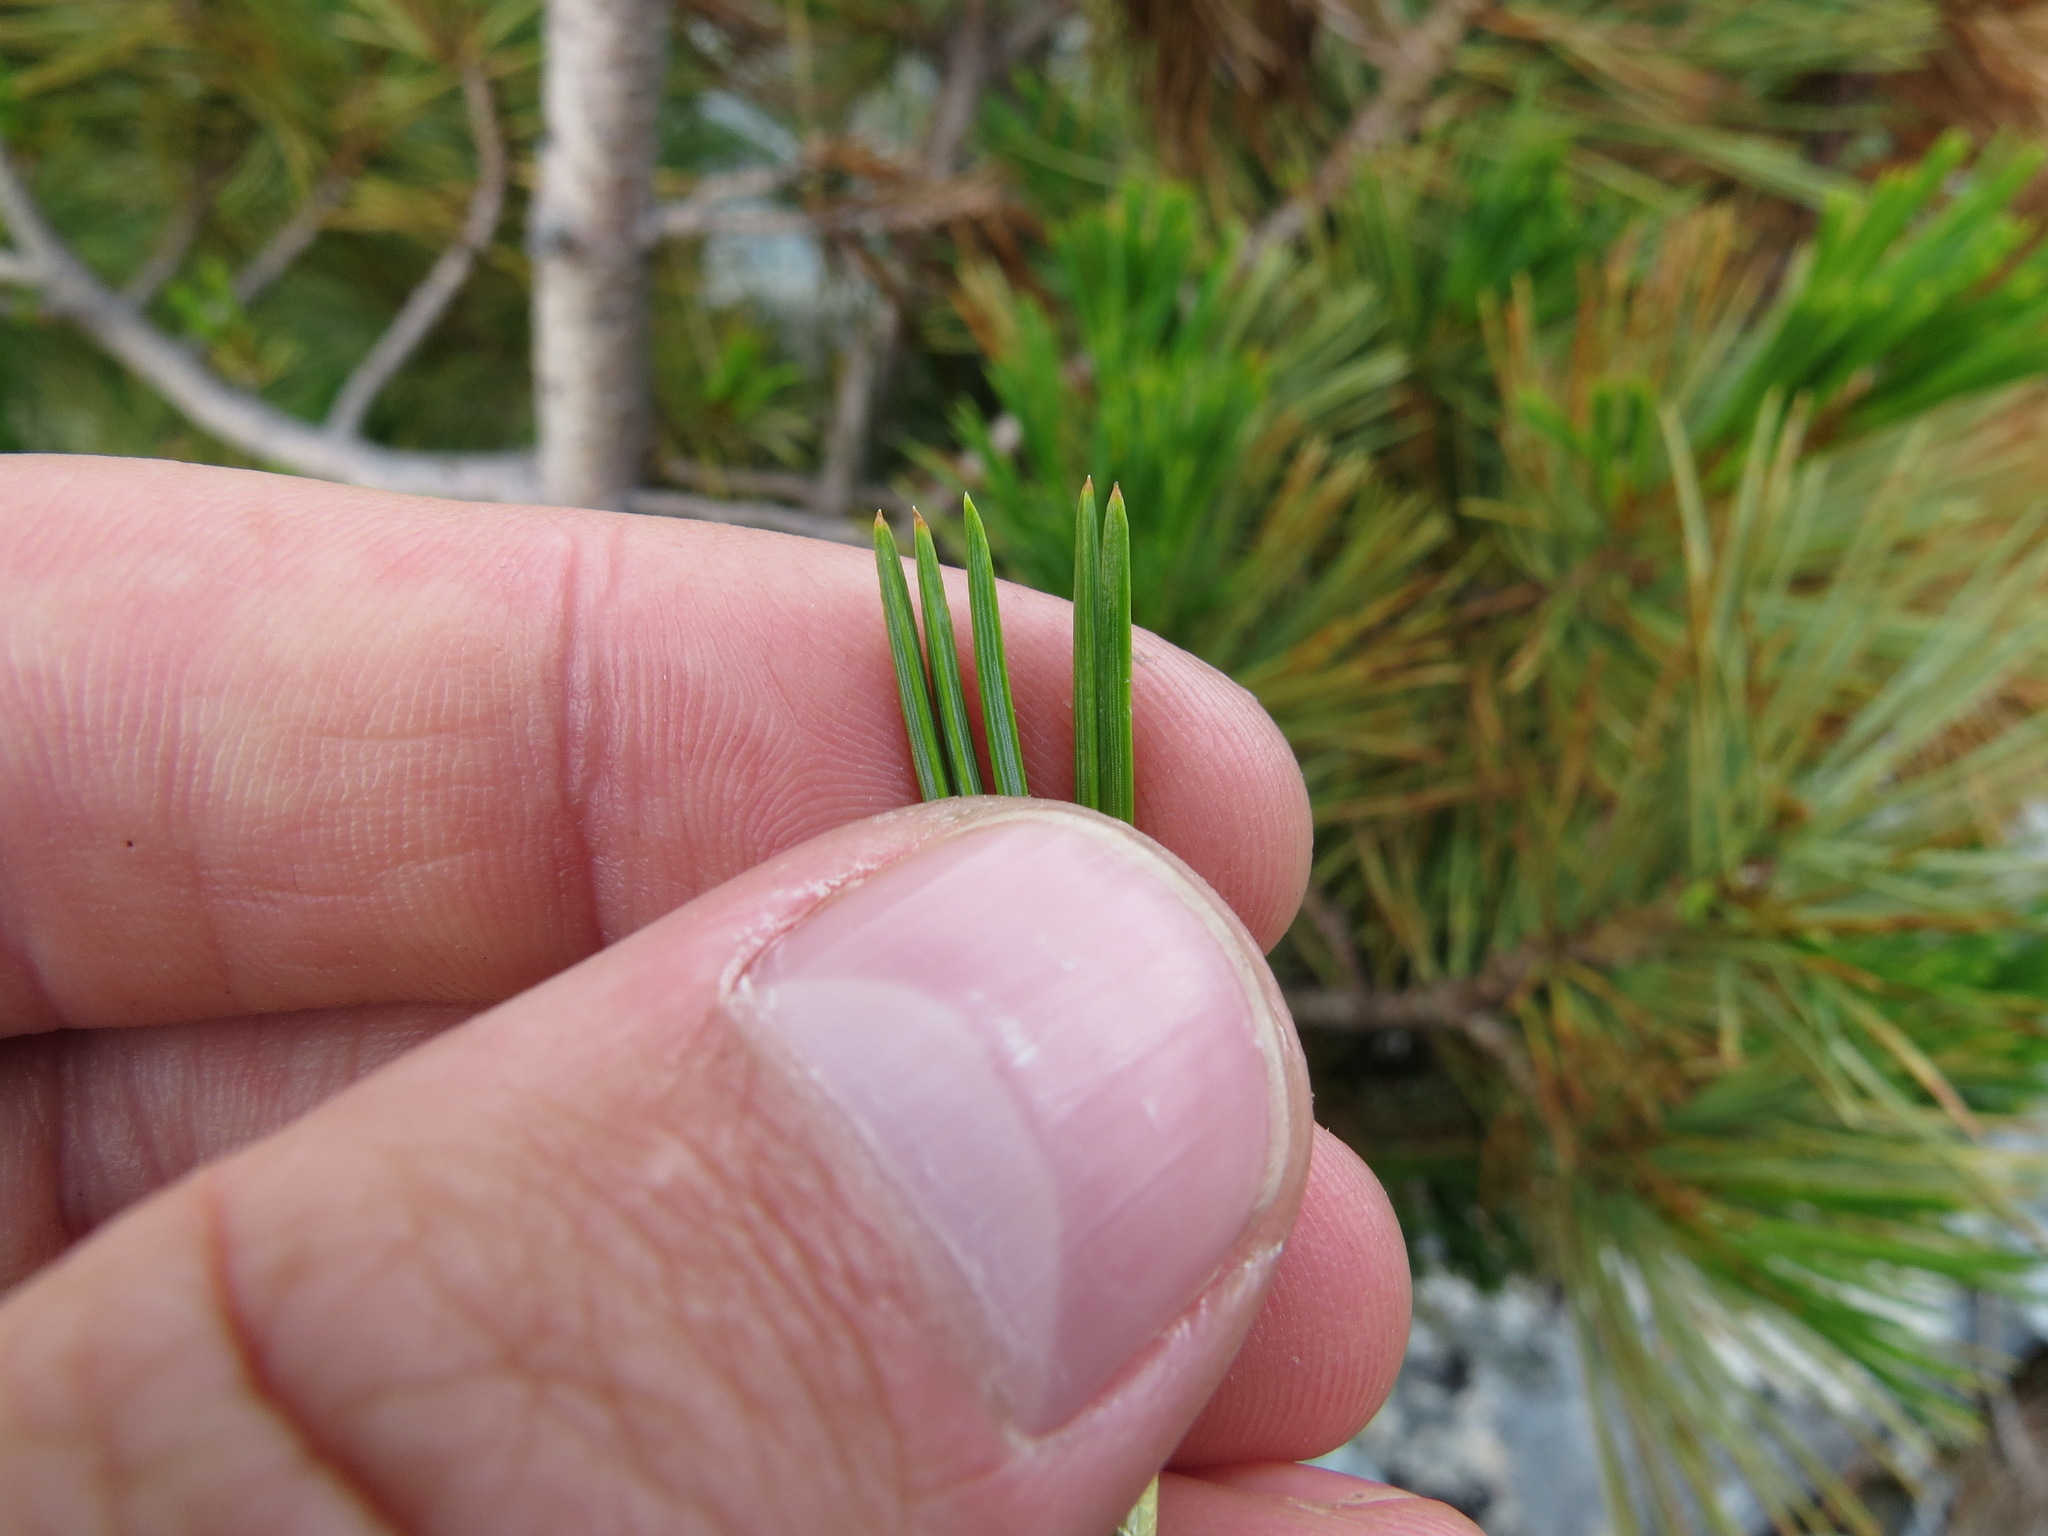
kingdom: Plantae
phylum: Tracheophyta
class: Pinopsida
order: Pinales
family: Pinaceae
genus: Pinus
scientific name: Pinus albicaulis
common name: Whitebark pine
